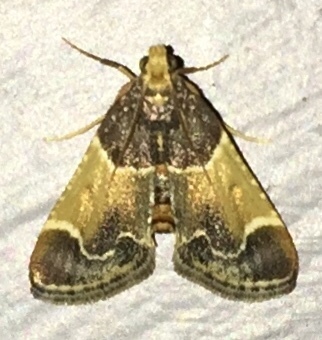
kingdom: Animalia
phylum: Arthropoda
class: Insecta
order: Lepidoptera
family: Pyralidae
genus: Pyralis
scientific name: Pyralis farinalis
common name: Meal moth
